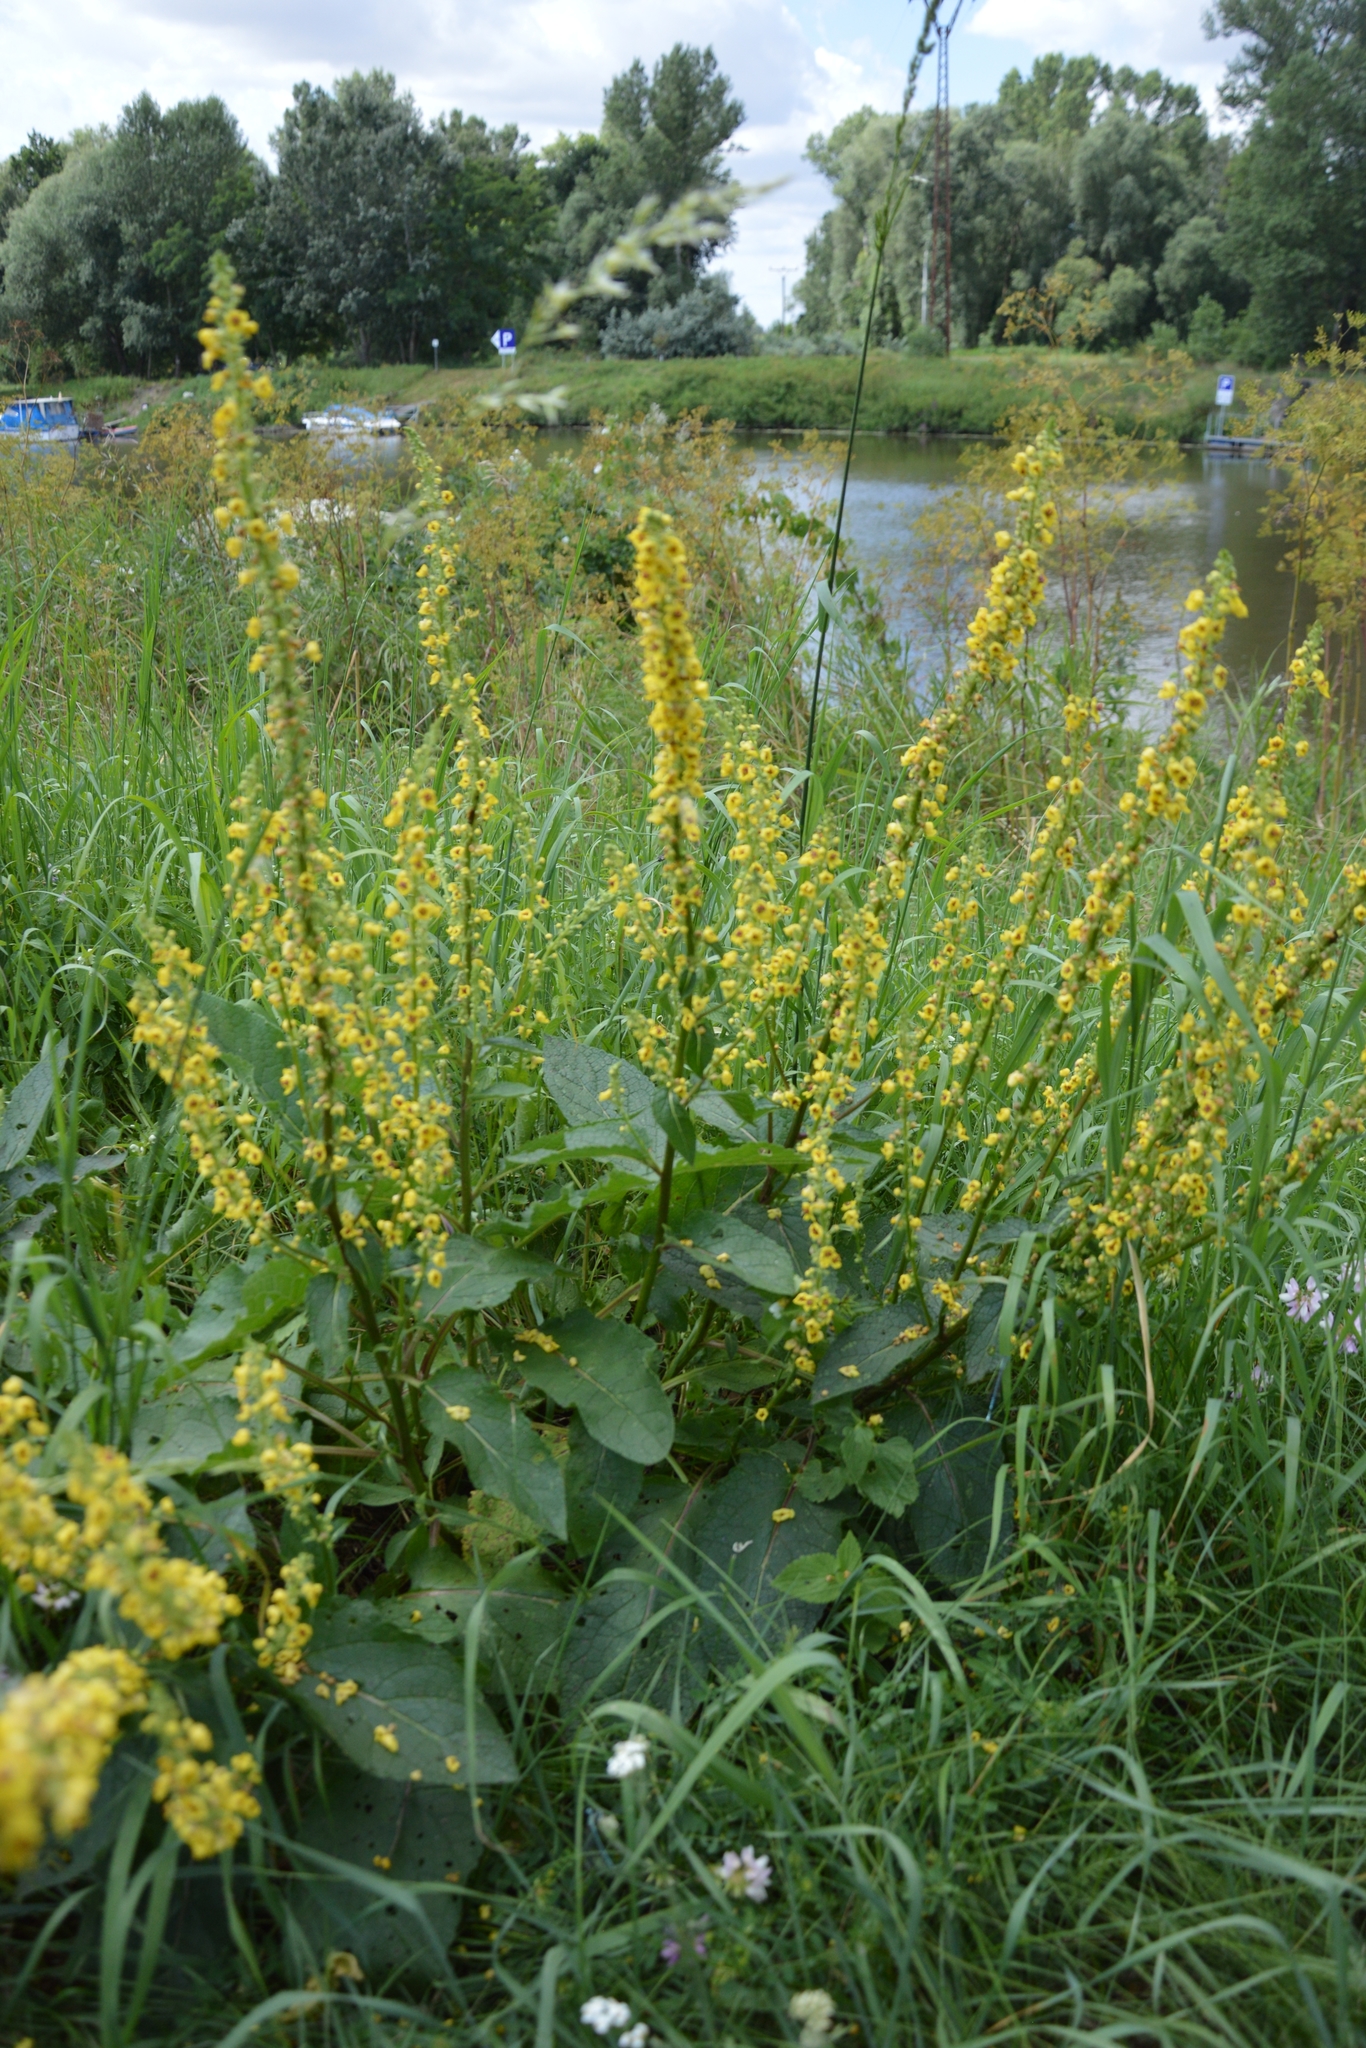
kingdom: Plantae
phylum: Tracheophyta
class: Magnoliopsida
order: Lamiales
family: Scrophulariaceae
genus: Verbascum
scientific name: Verbascum nigrum
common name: Dark mullein
